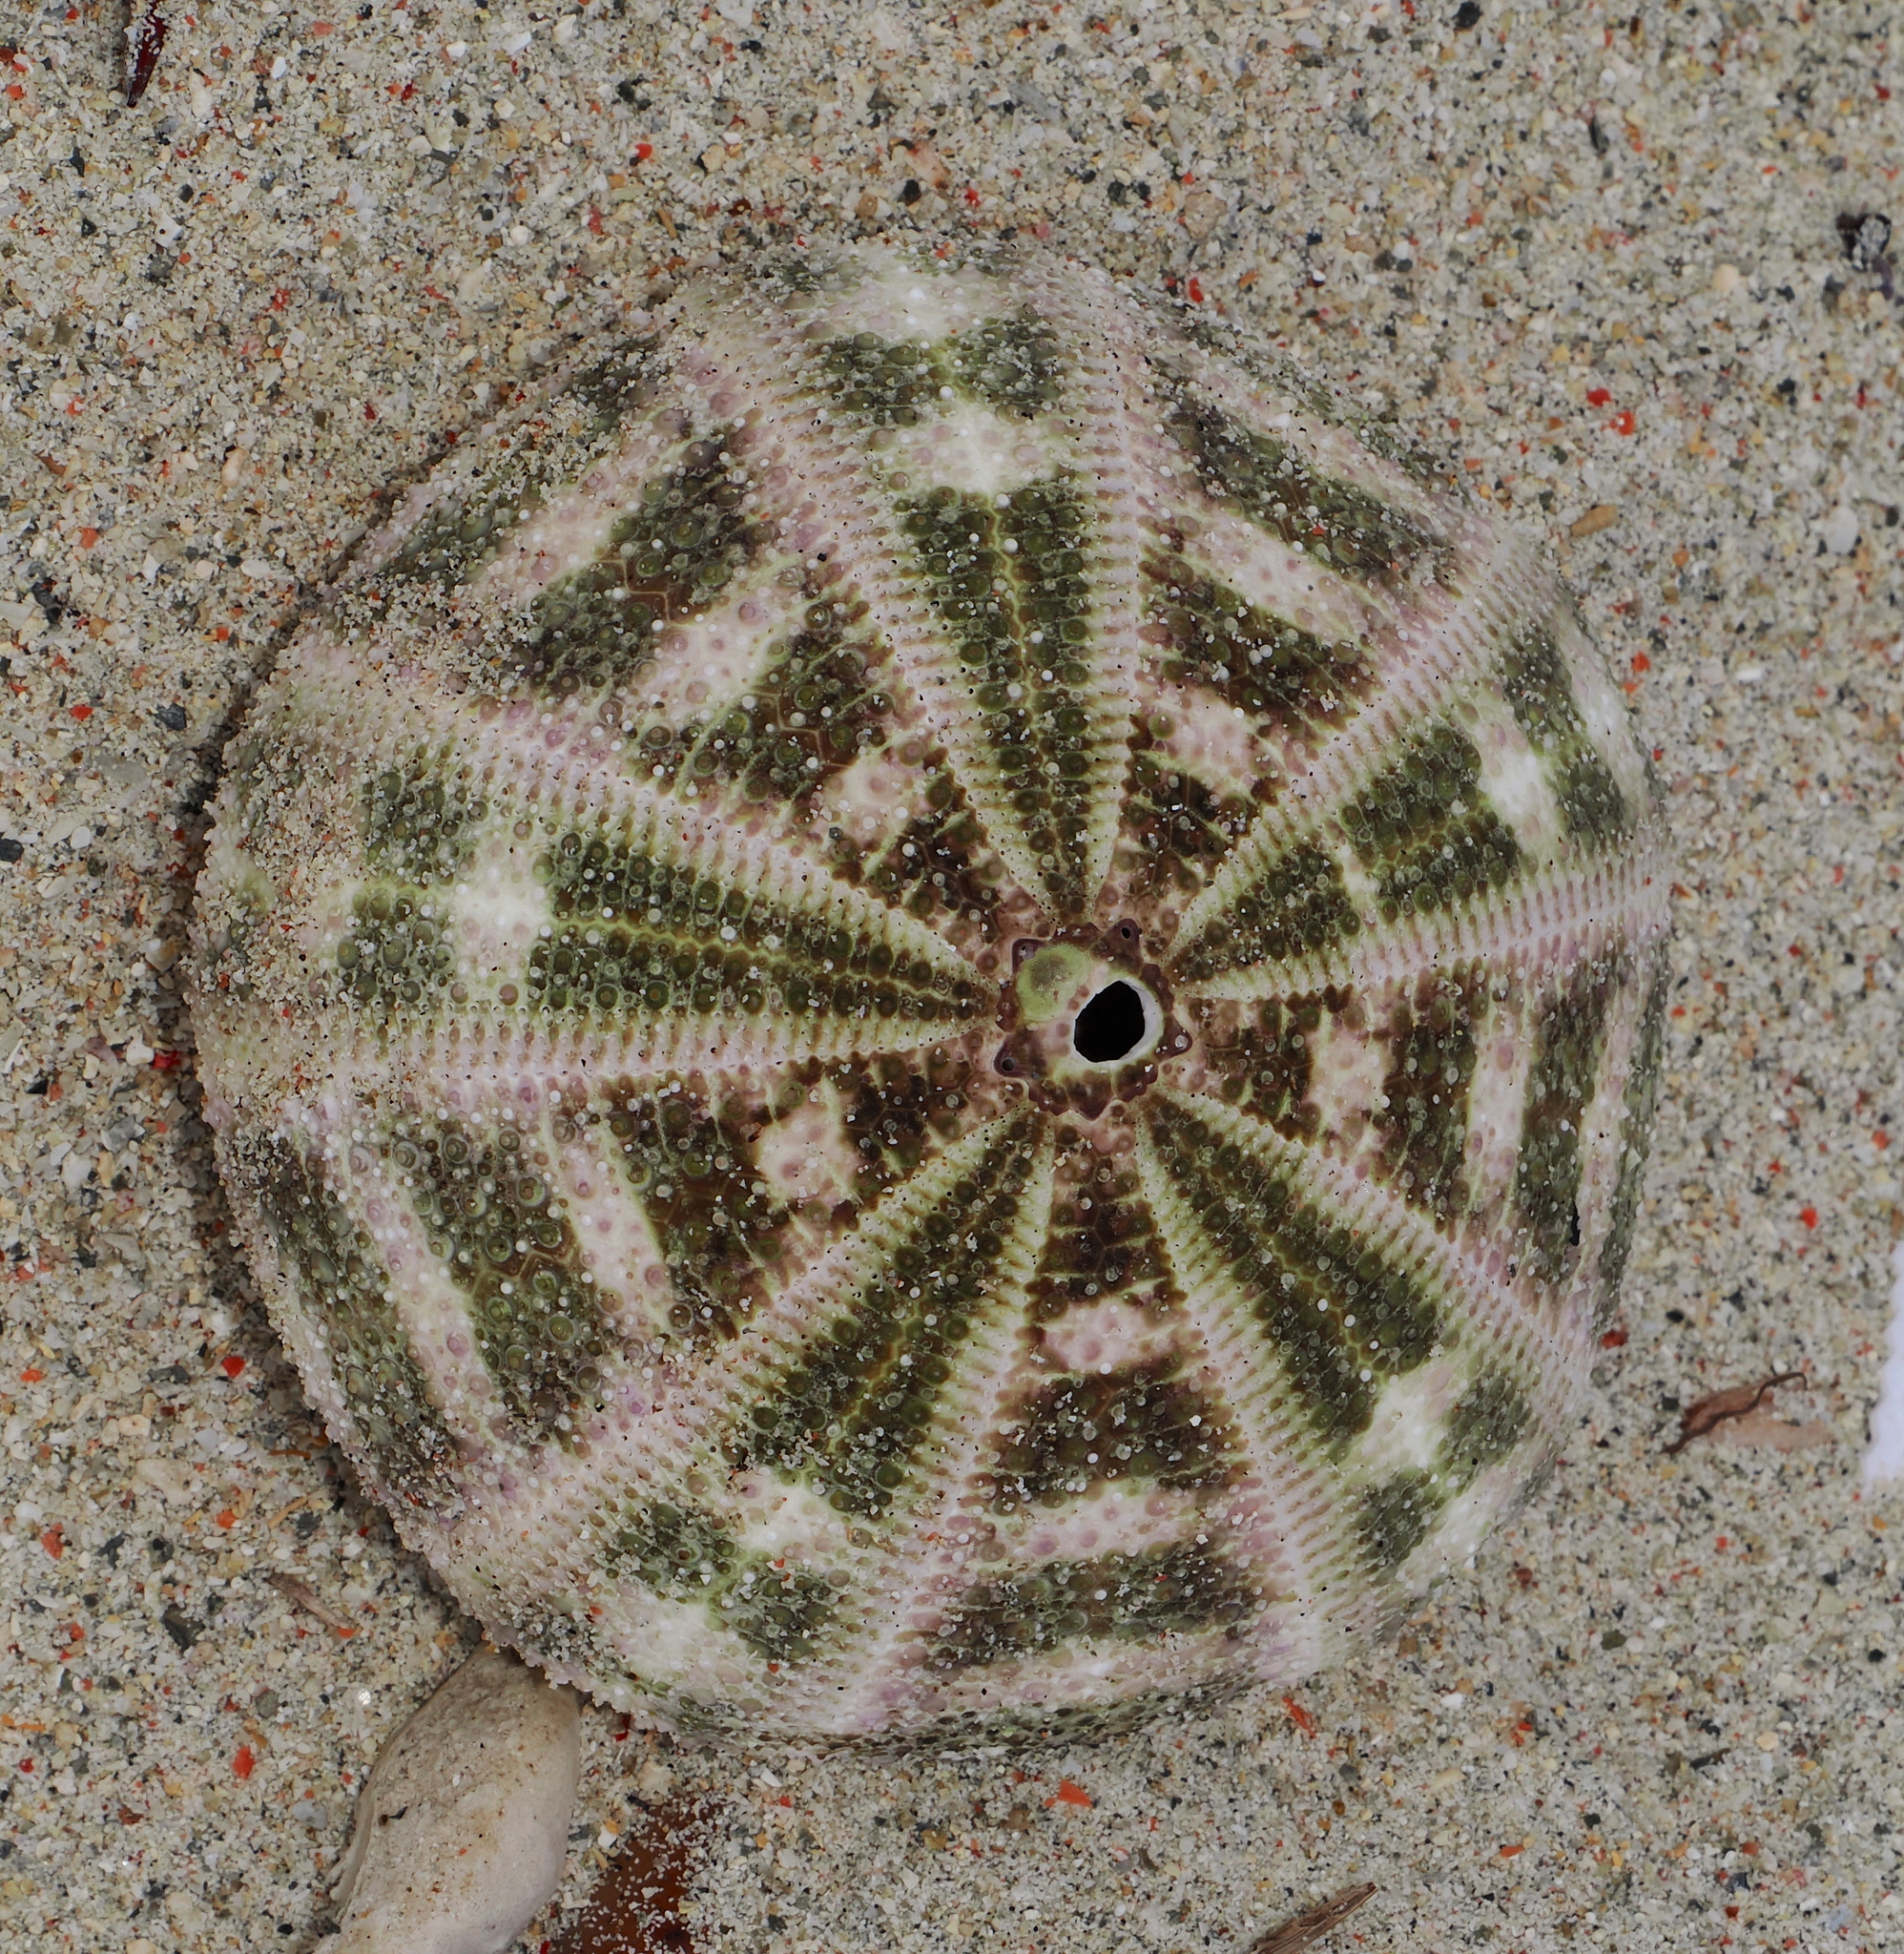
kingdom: Animalia
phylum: Echinodermata
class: Echinoidea
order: Camarodonta
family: Toxopneustidae
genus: Toxopneustes
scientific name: Toxopneustes pileolus
